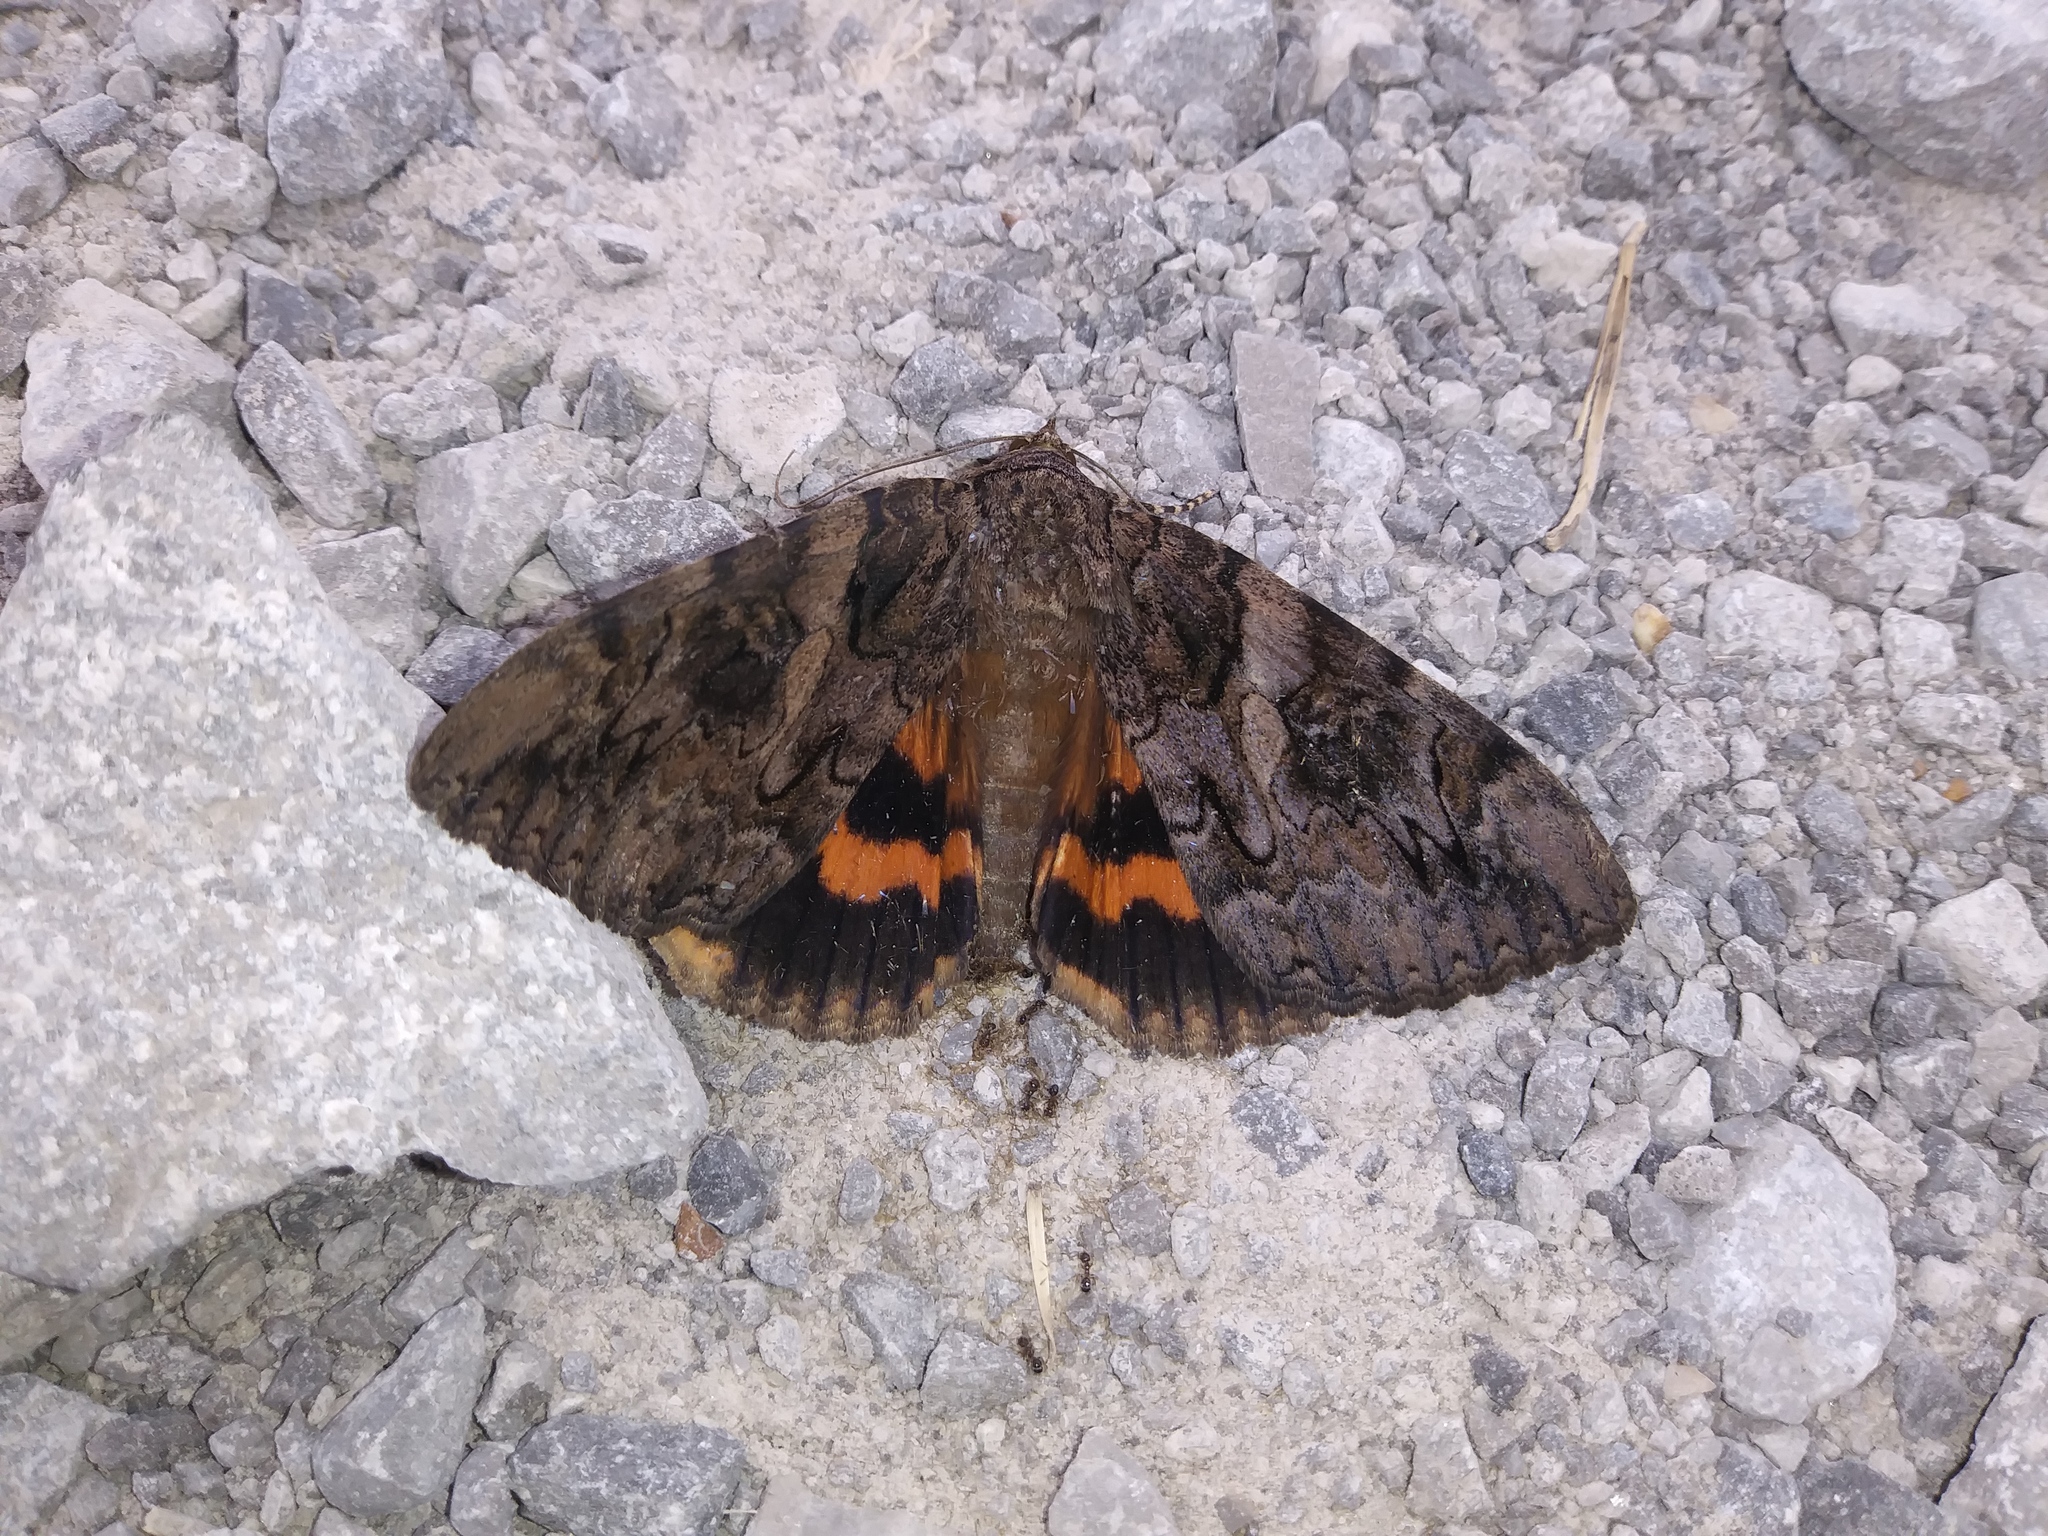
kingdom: Animalia
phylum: Arthropoda
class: Insecta
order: Lepidoptera
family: Erebidae
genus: Catocala
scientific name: Catocala piatrix
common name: The penitent underwing
